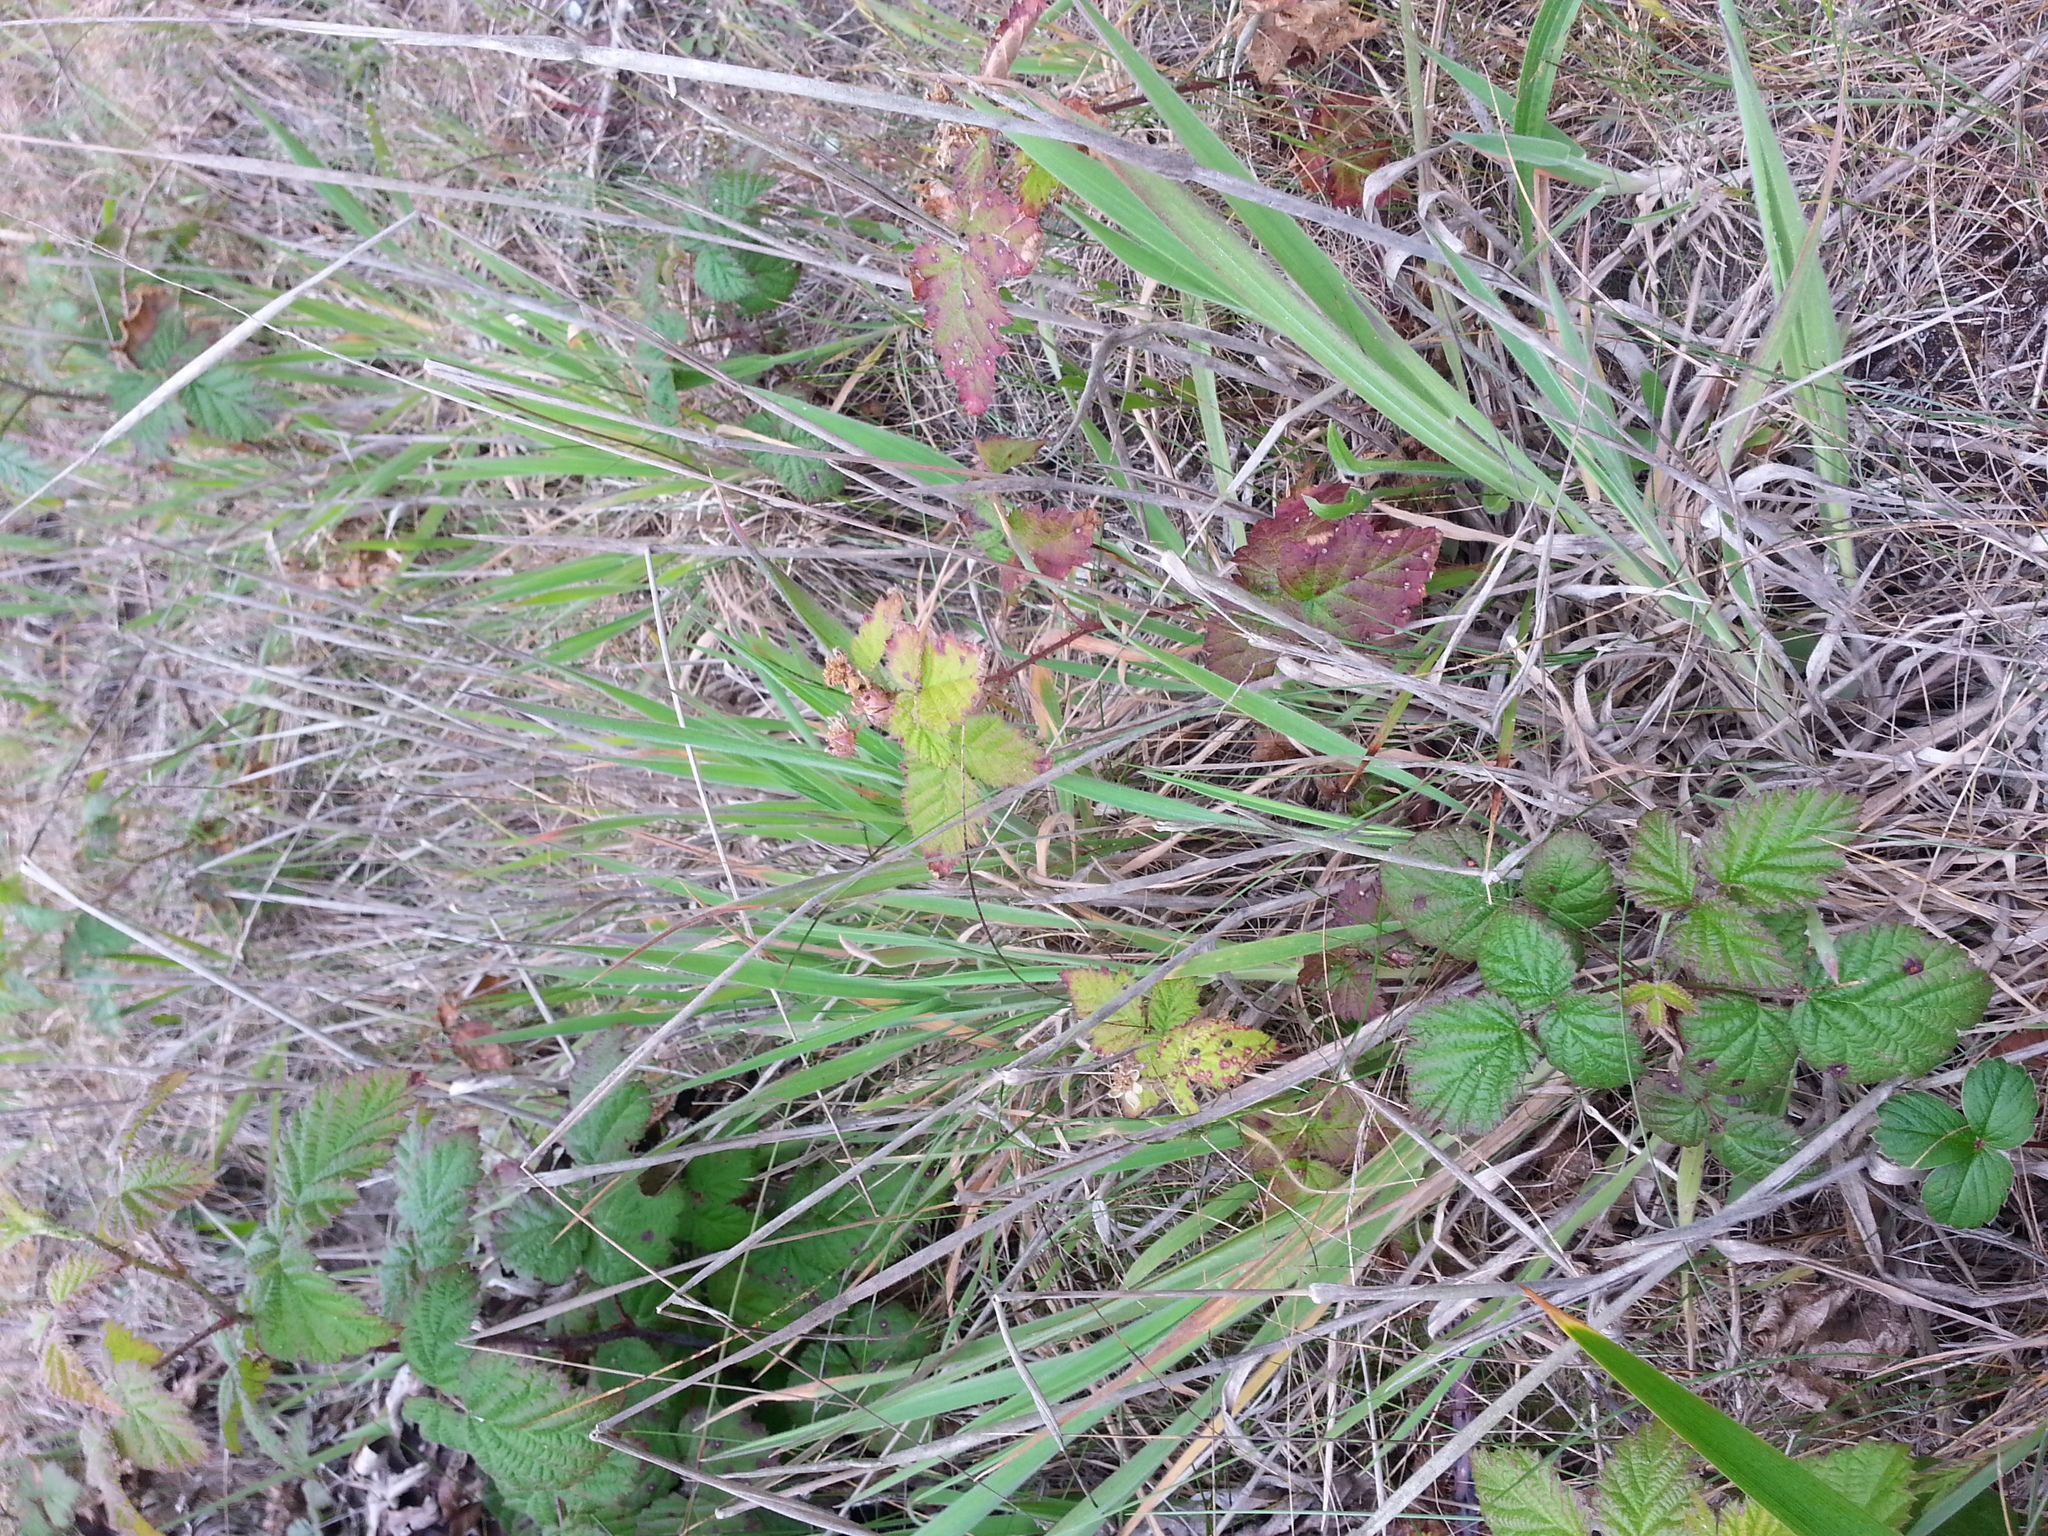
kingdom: Plantae
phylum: Tracheophyta
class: Liliopsida
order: Poales
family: Poaceae
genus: Holcus
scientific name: Holcus lanatus
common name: Yorkshire-fog
